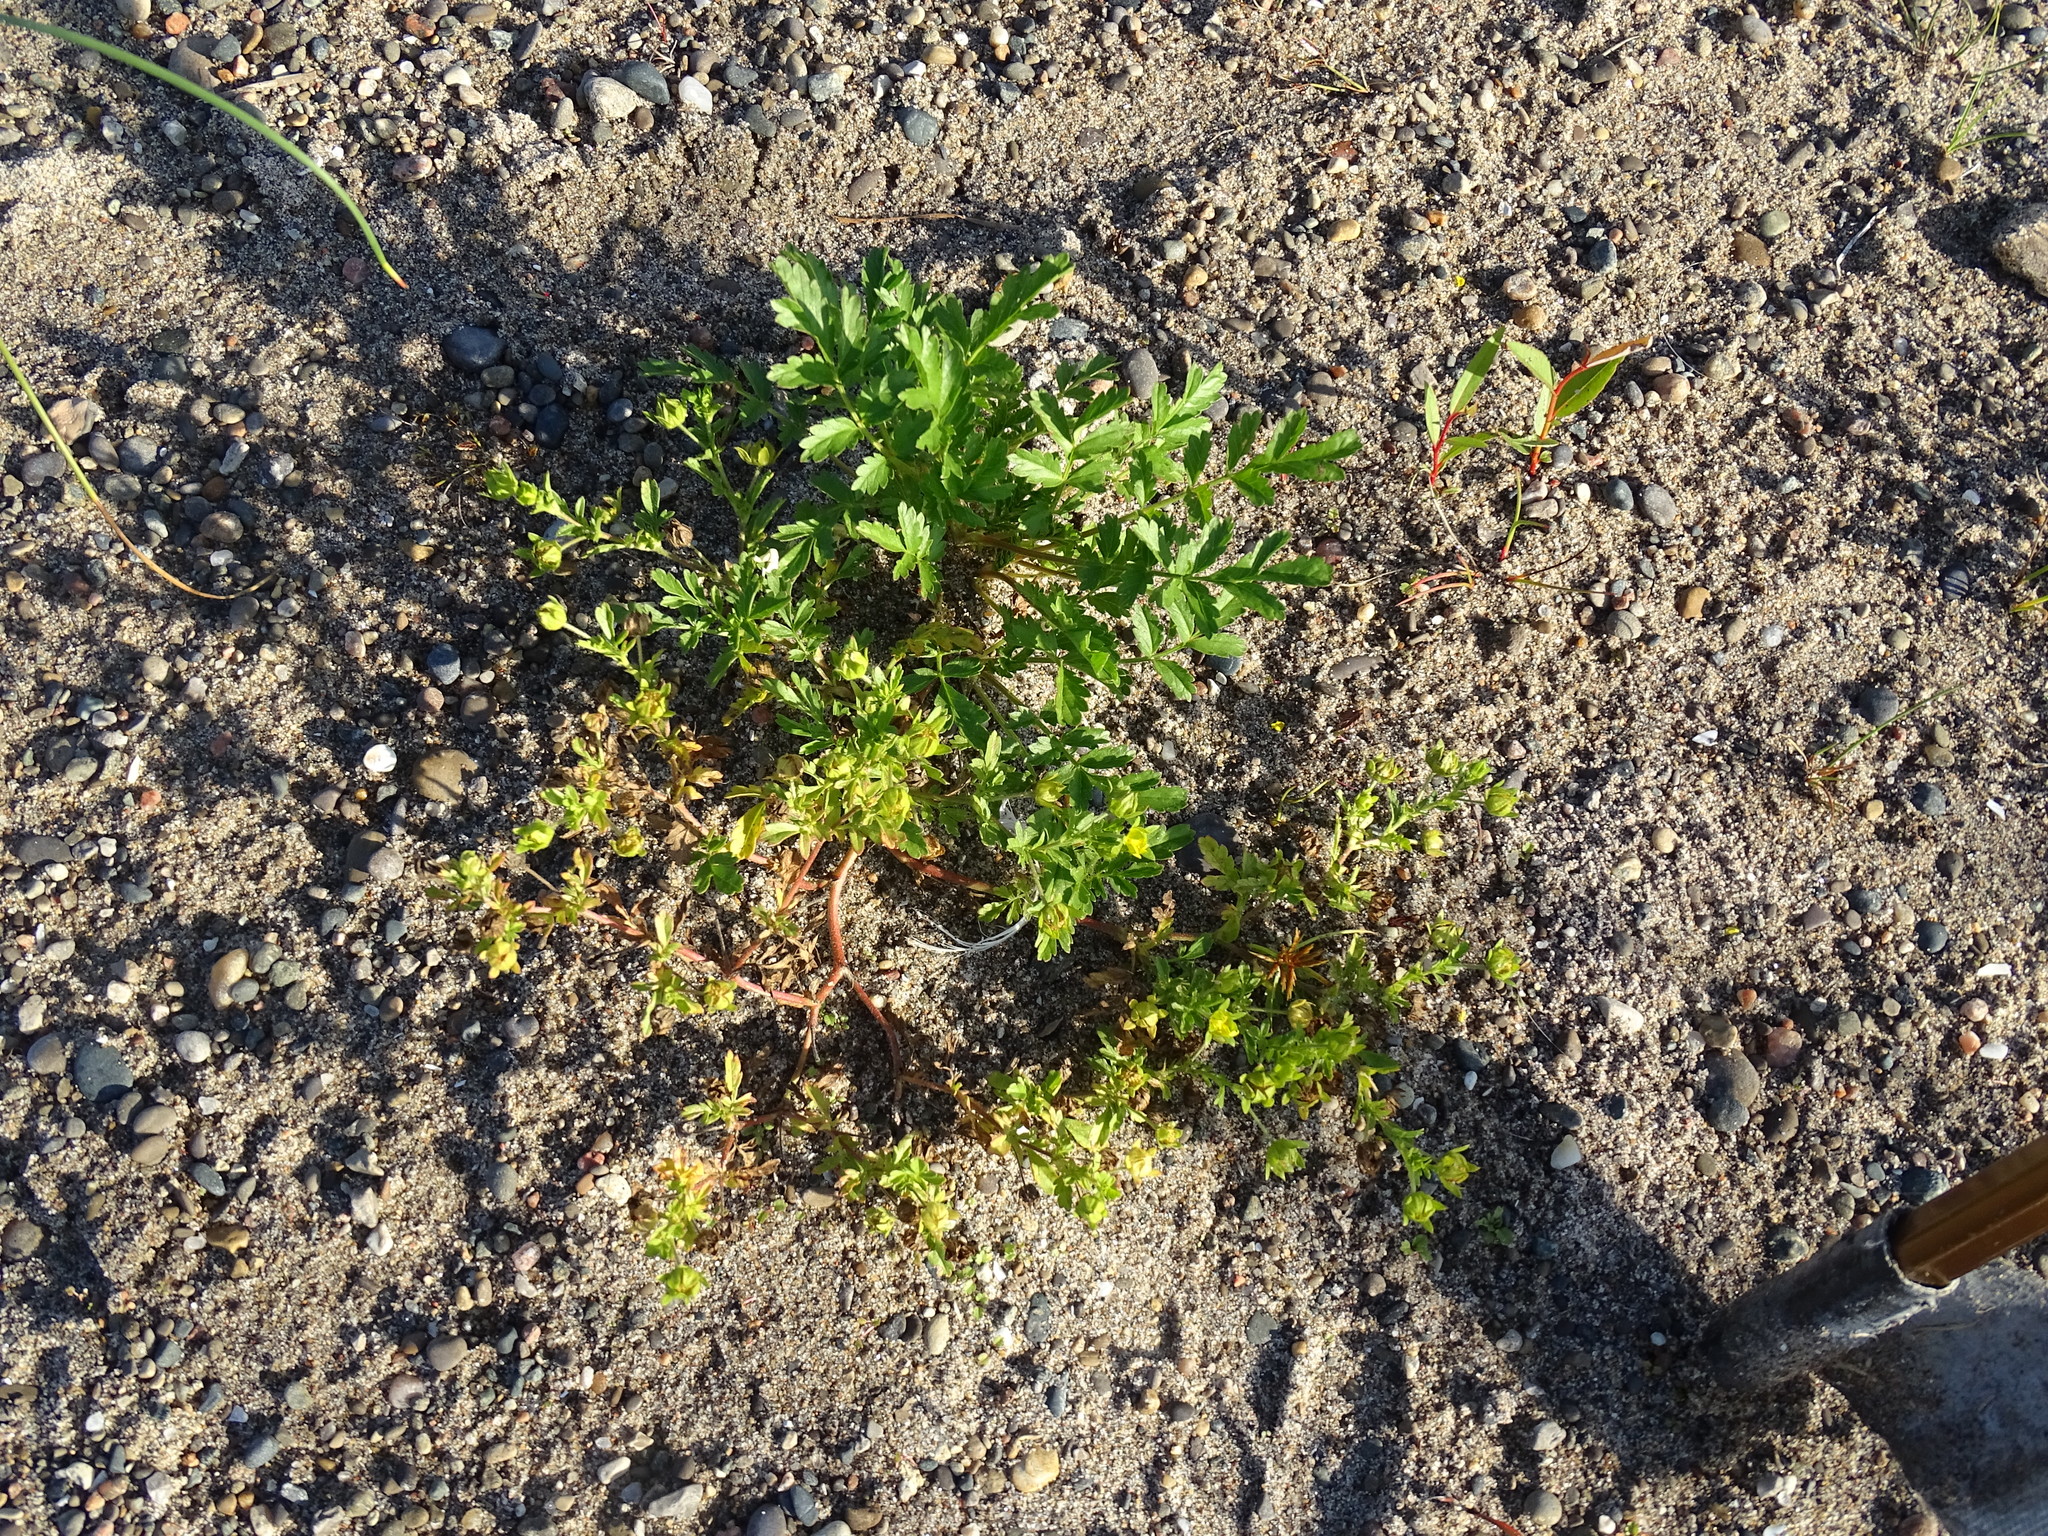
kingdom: Plantae
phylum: Tracheophyta
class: Magnoliopsida
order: Rosales
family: Rosaceae
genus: Potentilla
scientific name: Potentilla supina
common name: Prostrate cinquefoil
